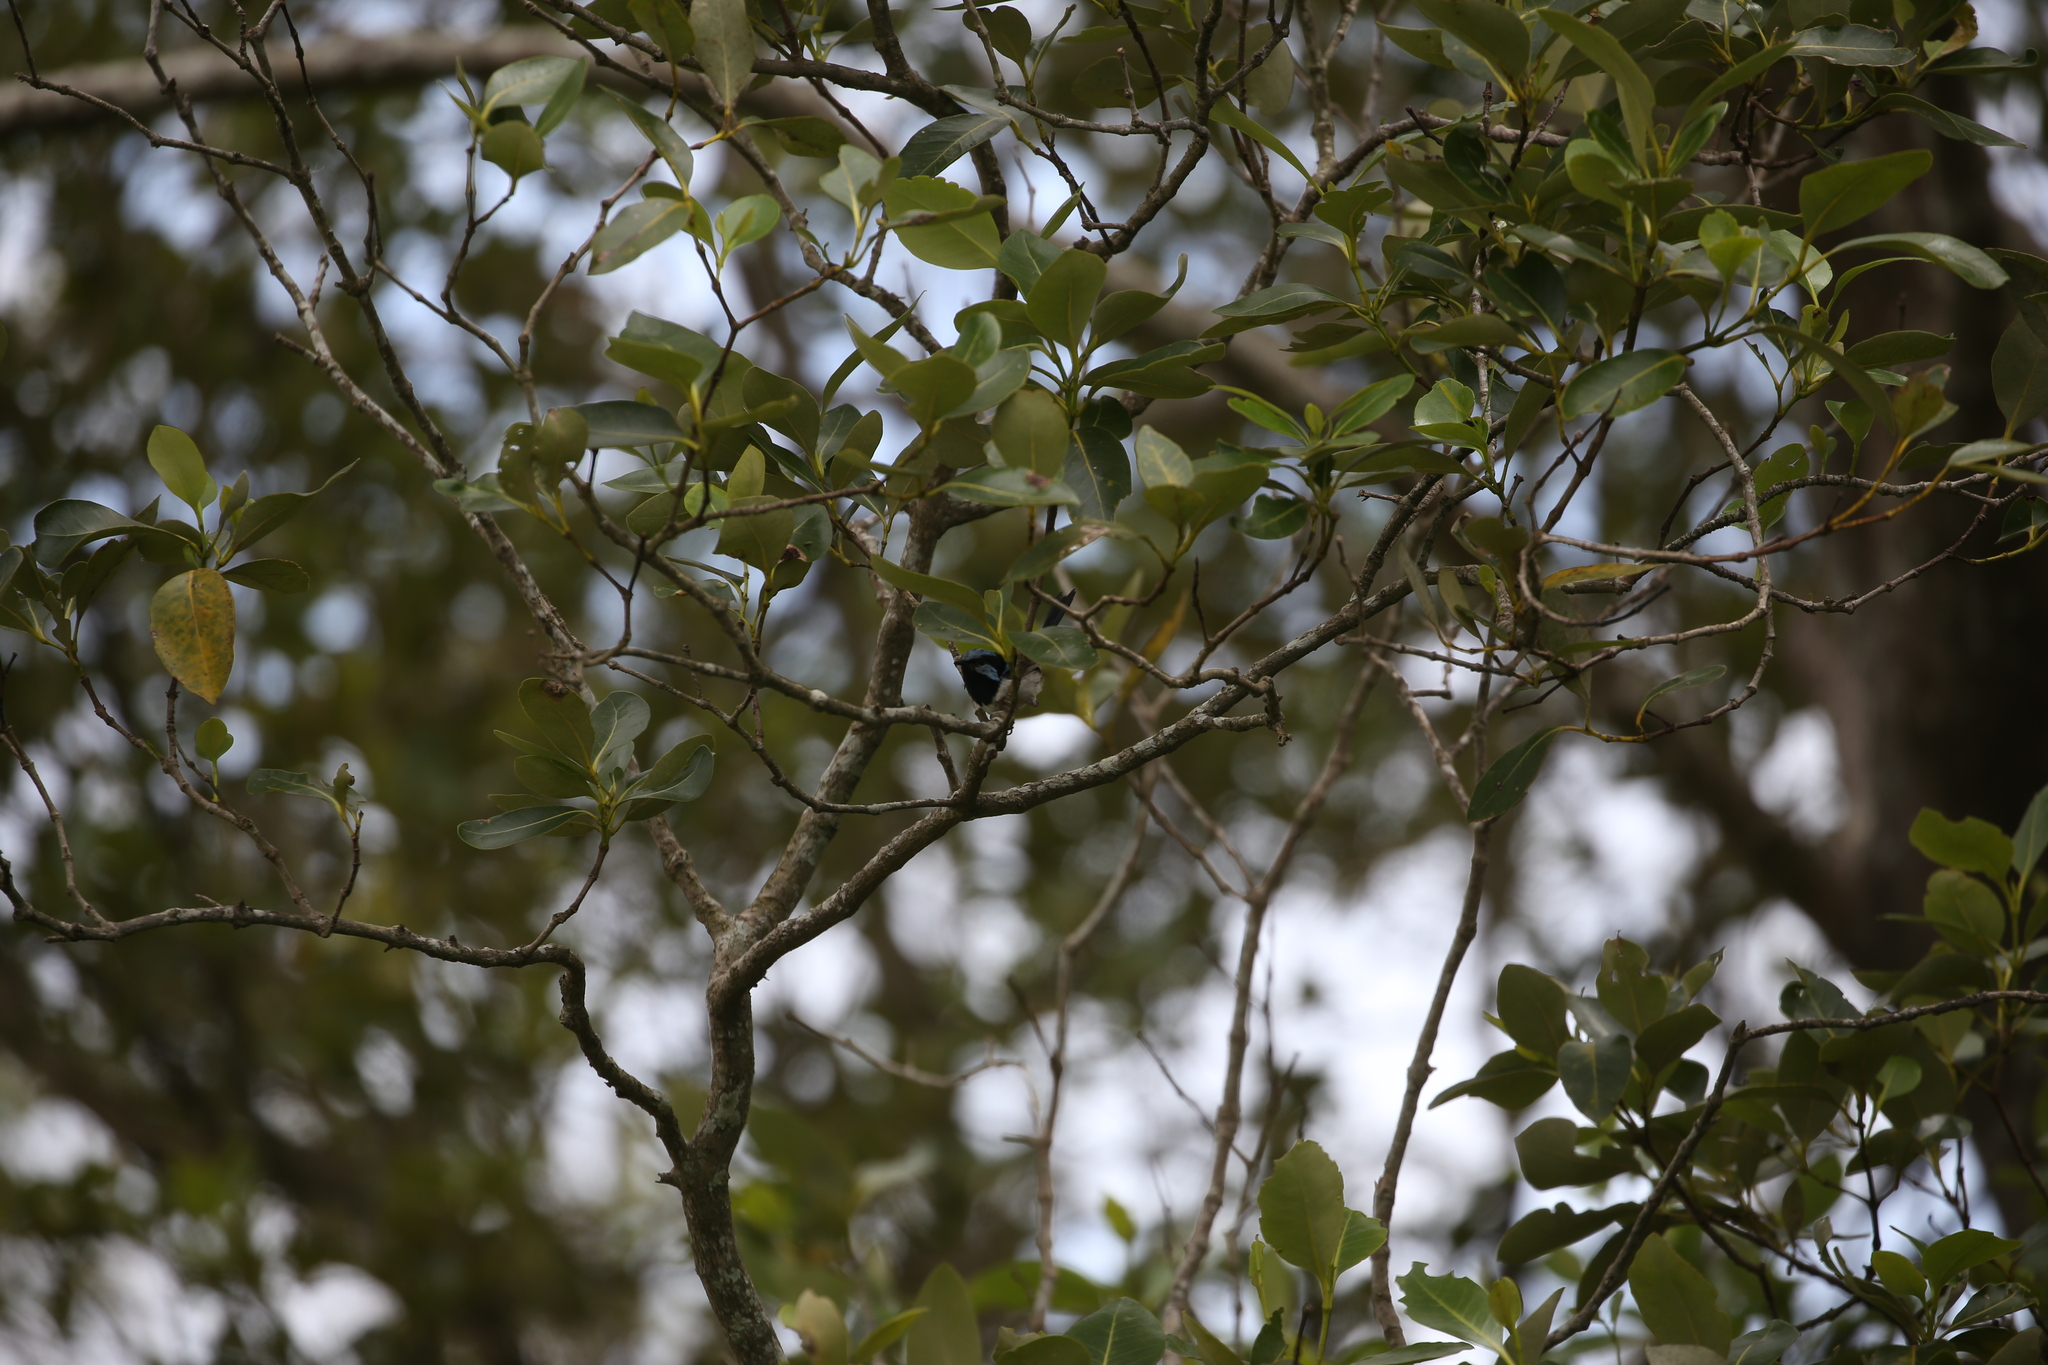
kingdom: Animalia
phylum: Chordata
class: Aves
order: Passeriformes
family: Maluridae
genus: Malurus
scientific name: Malurus cyaneus
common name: Superb fairywren
